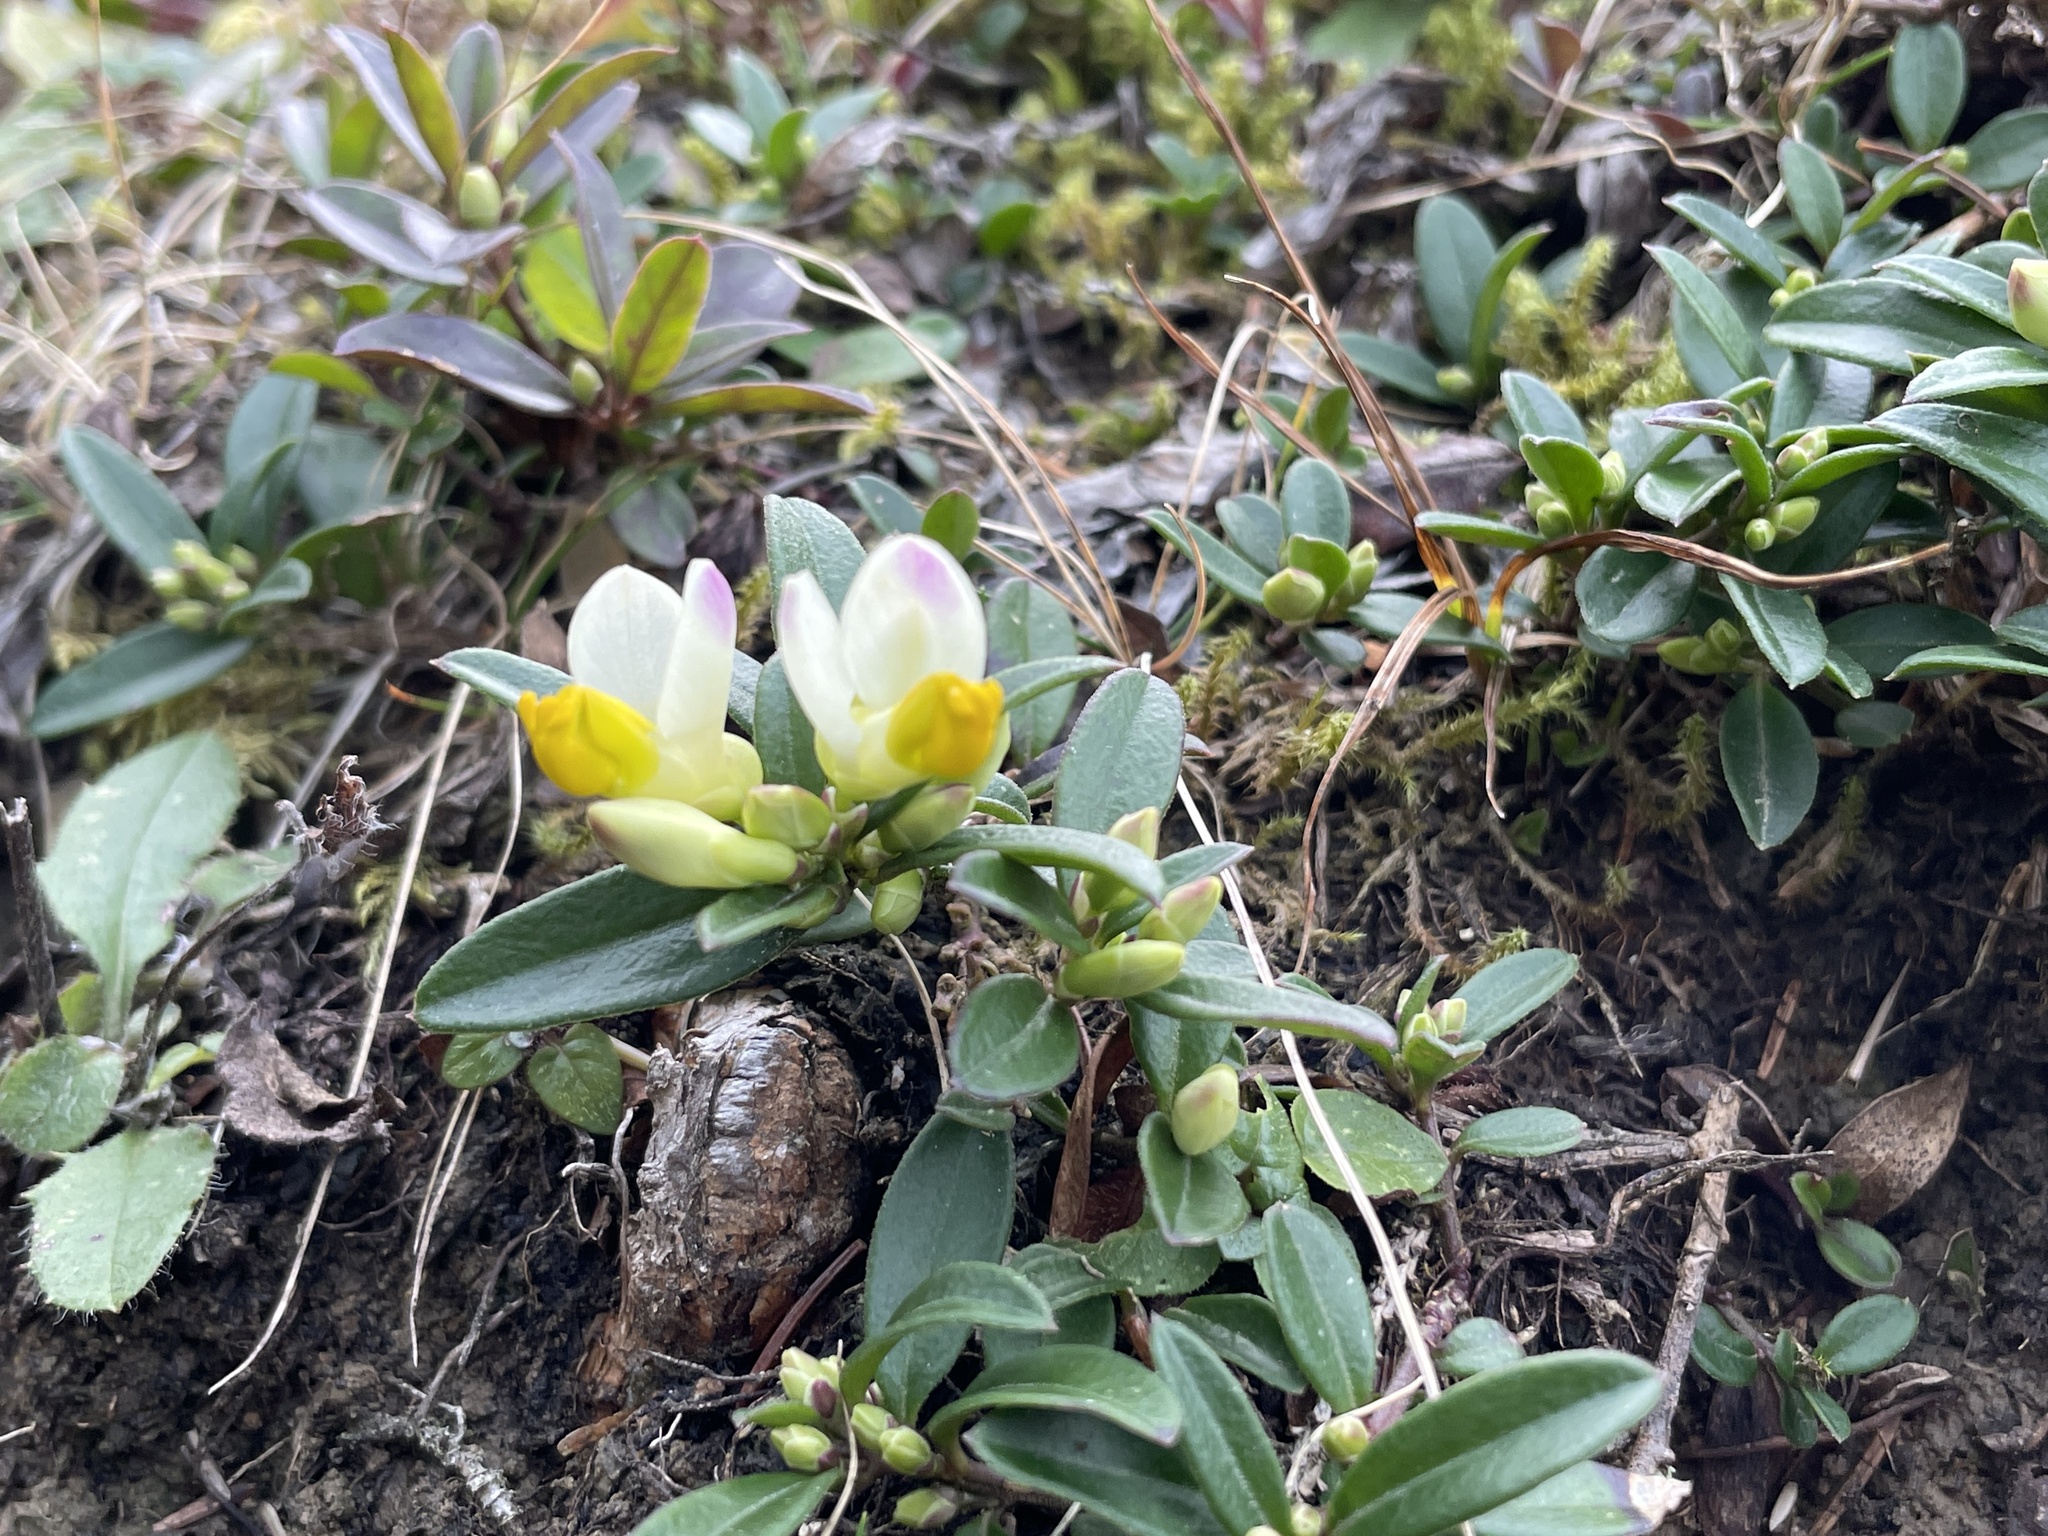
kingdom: Plantae
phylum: Tracheophyta
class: Magnoliopsida
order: Fabales
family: Polygalaceae
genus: Polygaloides
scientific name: Polygaloides chamaebuxus
